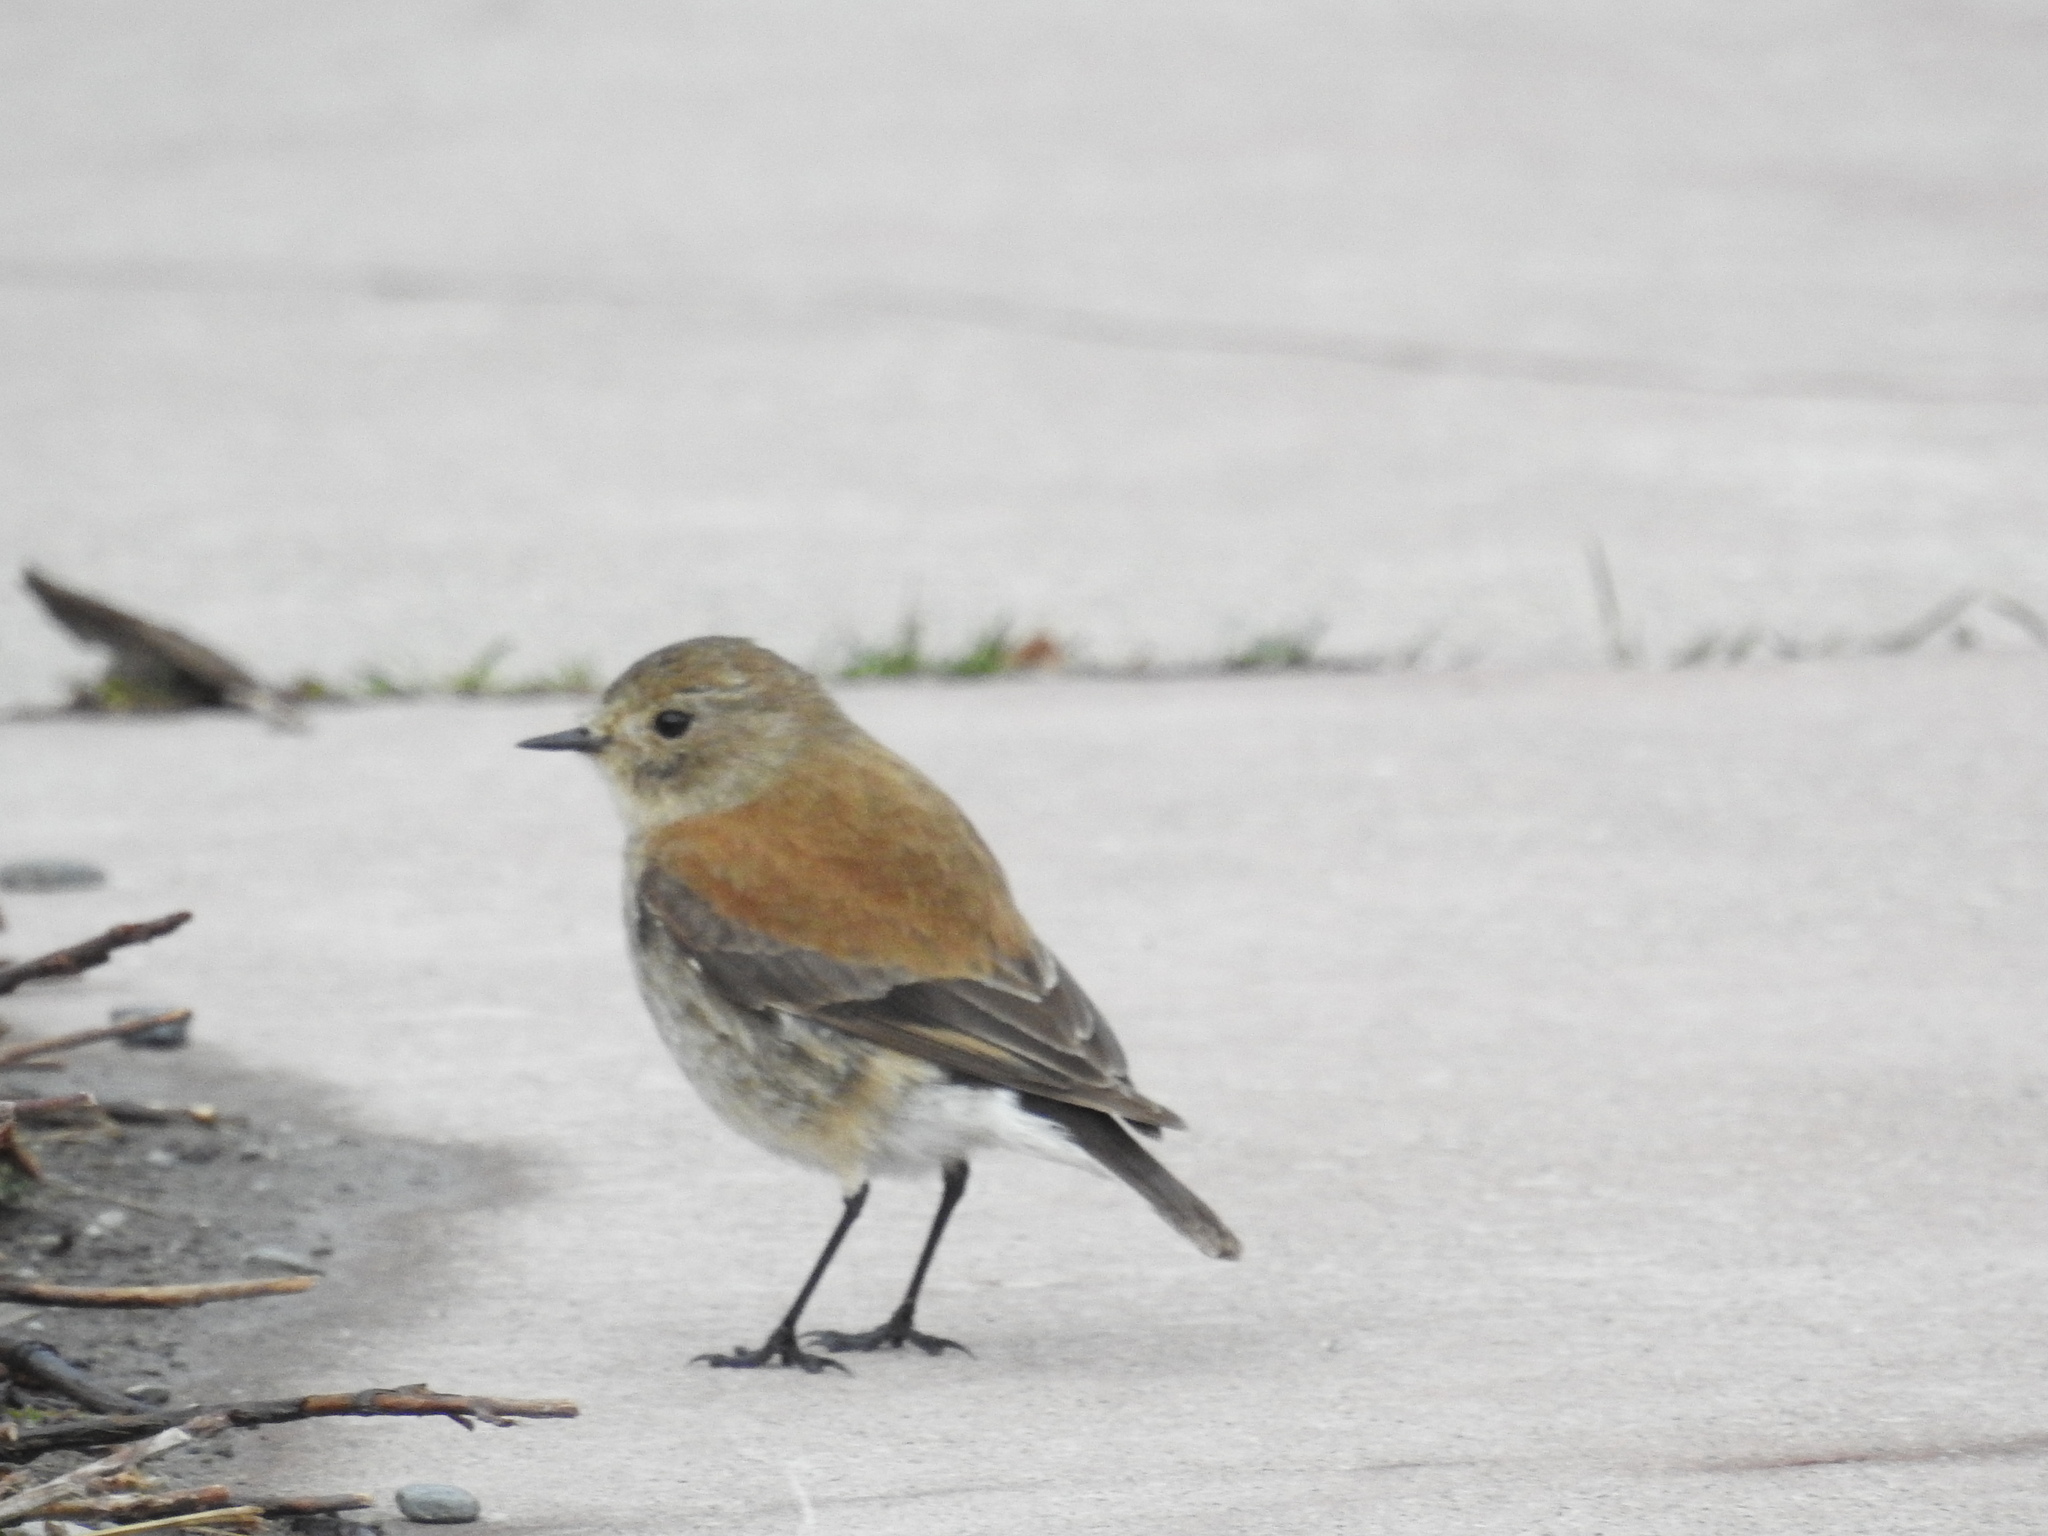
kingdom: Animalia
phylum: Chordata
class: Aves
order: Passeriformes
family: Tyrannidae
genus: Lessonia
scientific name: Lessonia rufa
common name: Austral negrito
